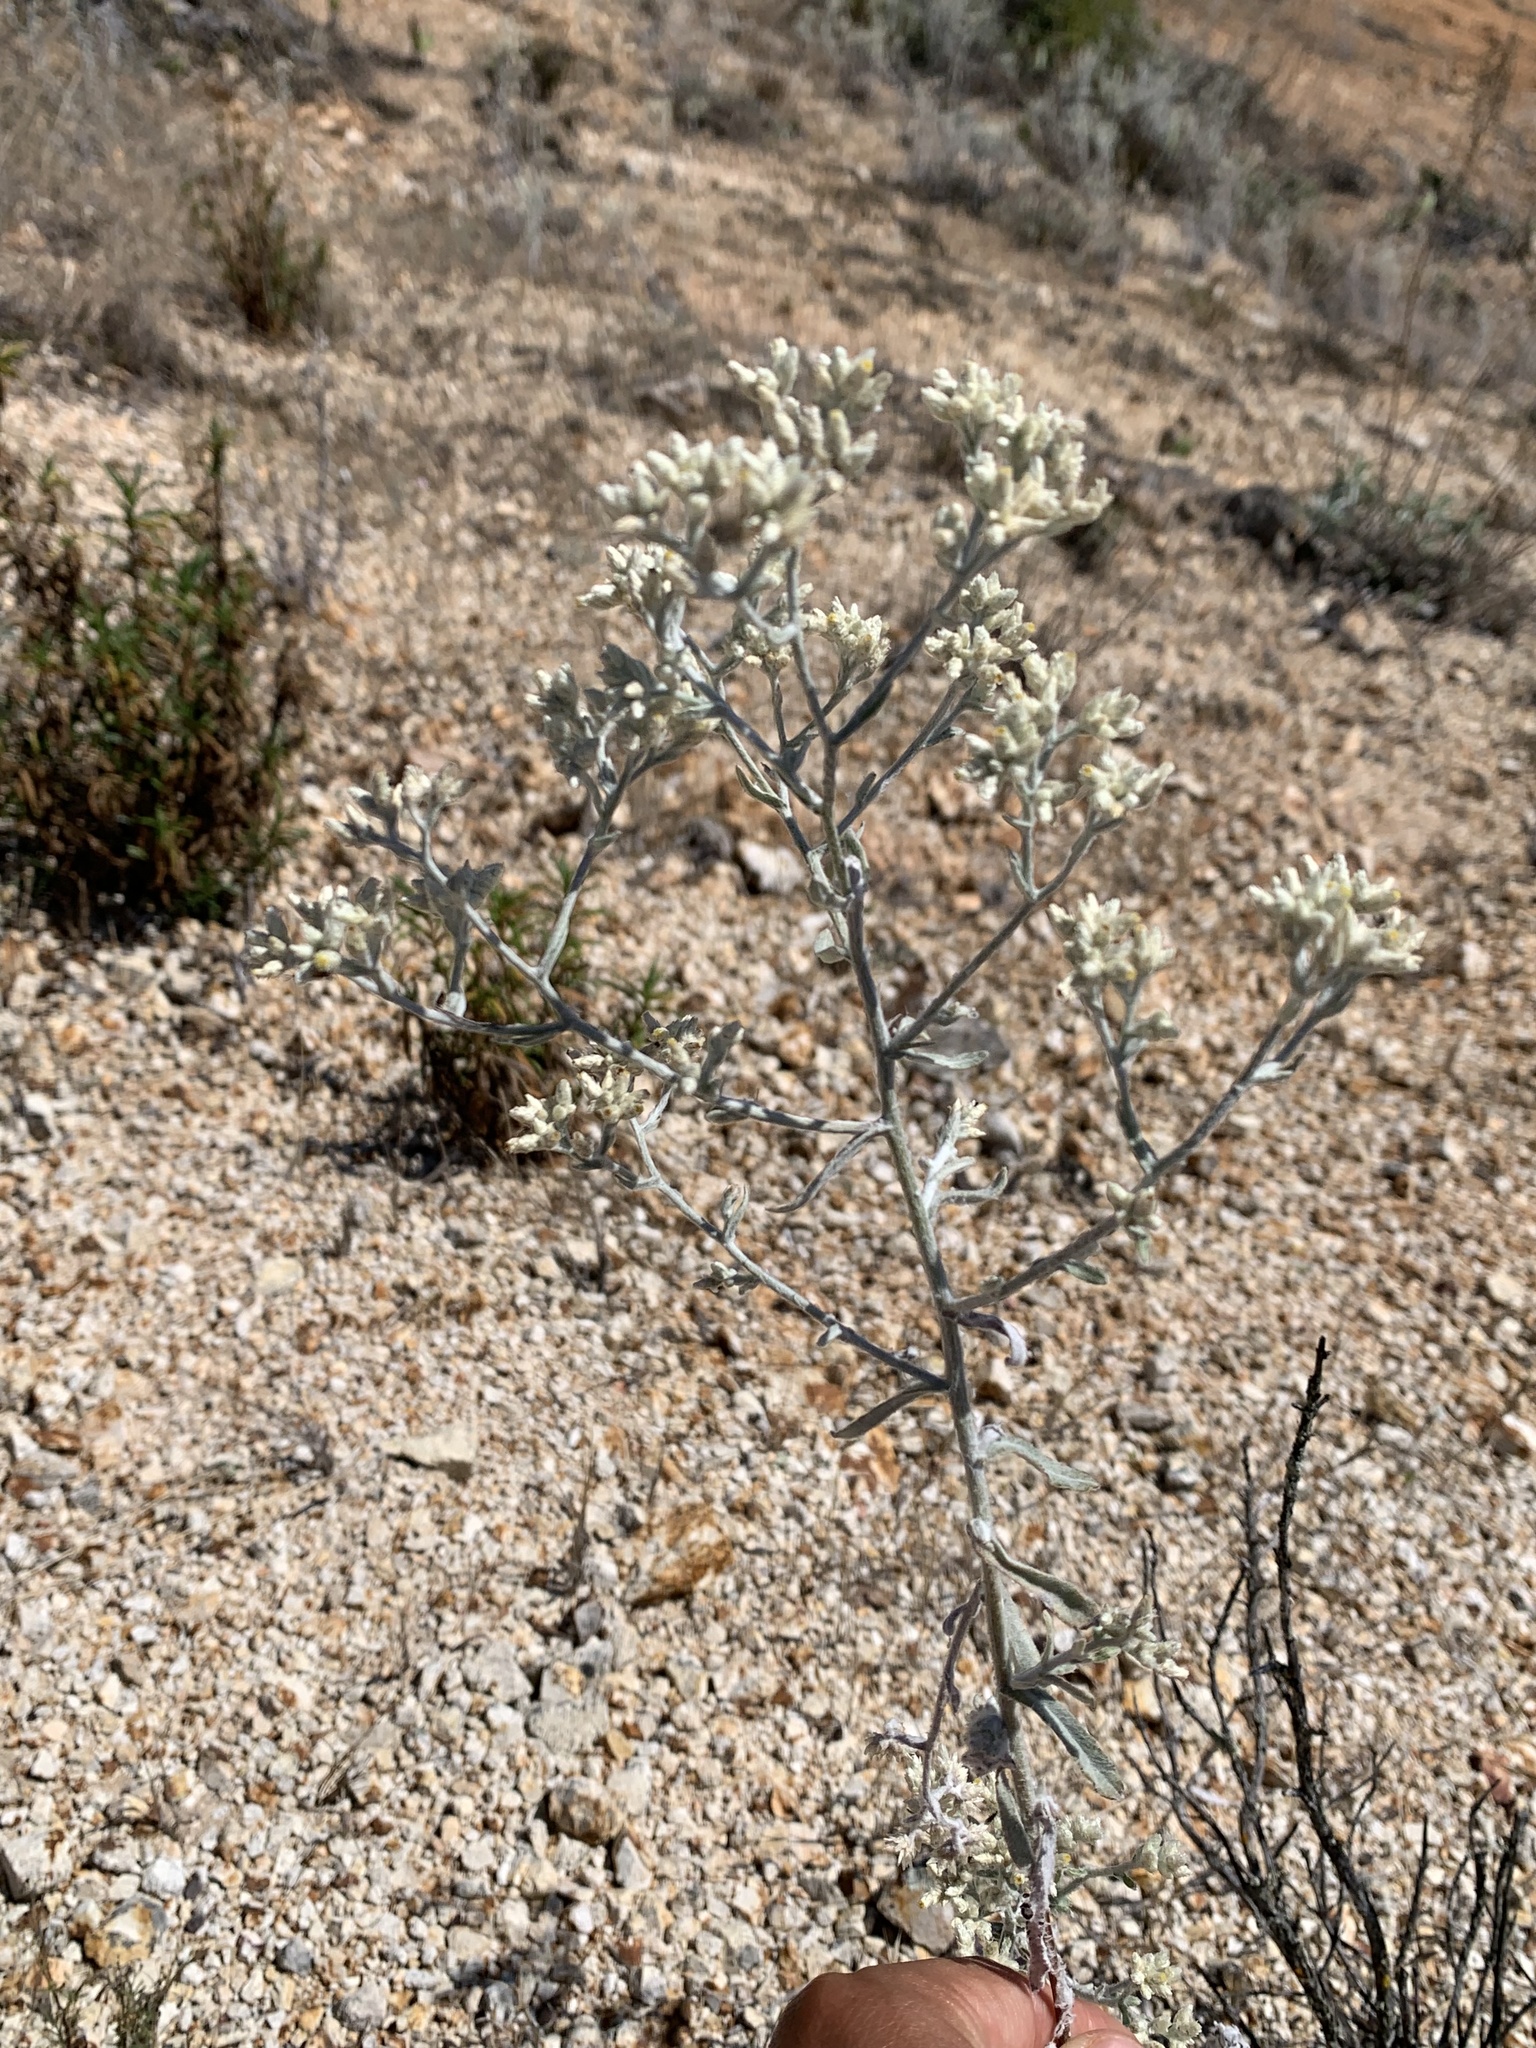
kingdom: Plantae
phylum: Tracheophyta
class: Magnoliopsida
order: Asterales
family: Asteraceae
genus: Pseudognaphalium
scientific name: Pseudognaphalium beneolens
